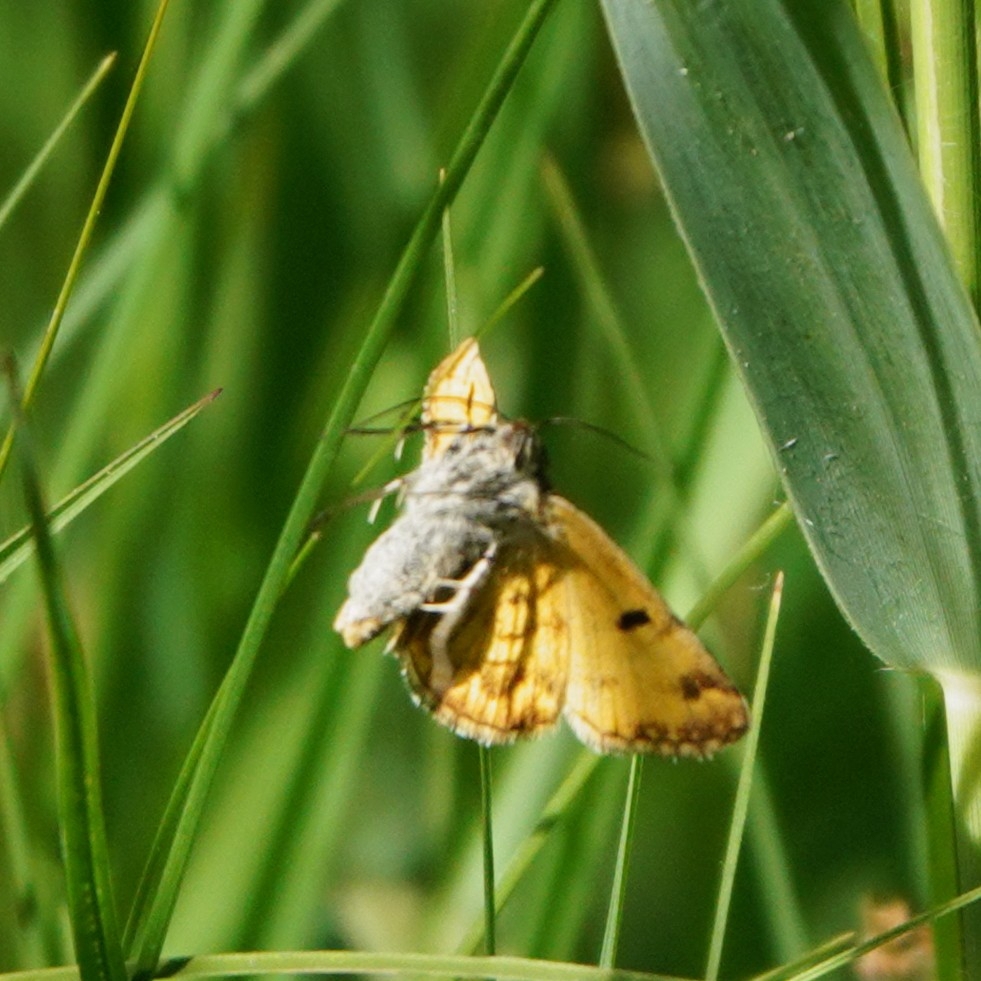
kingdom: Animalia
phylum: Arthropoda
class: Insecta
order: Lepidoptera
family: Erebidae
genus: Euclidia
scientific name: Euclidia glyphica
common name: Burnet companion
